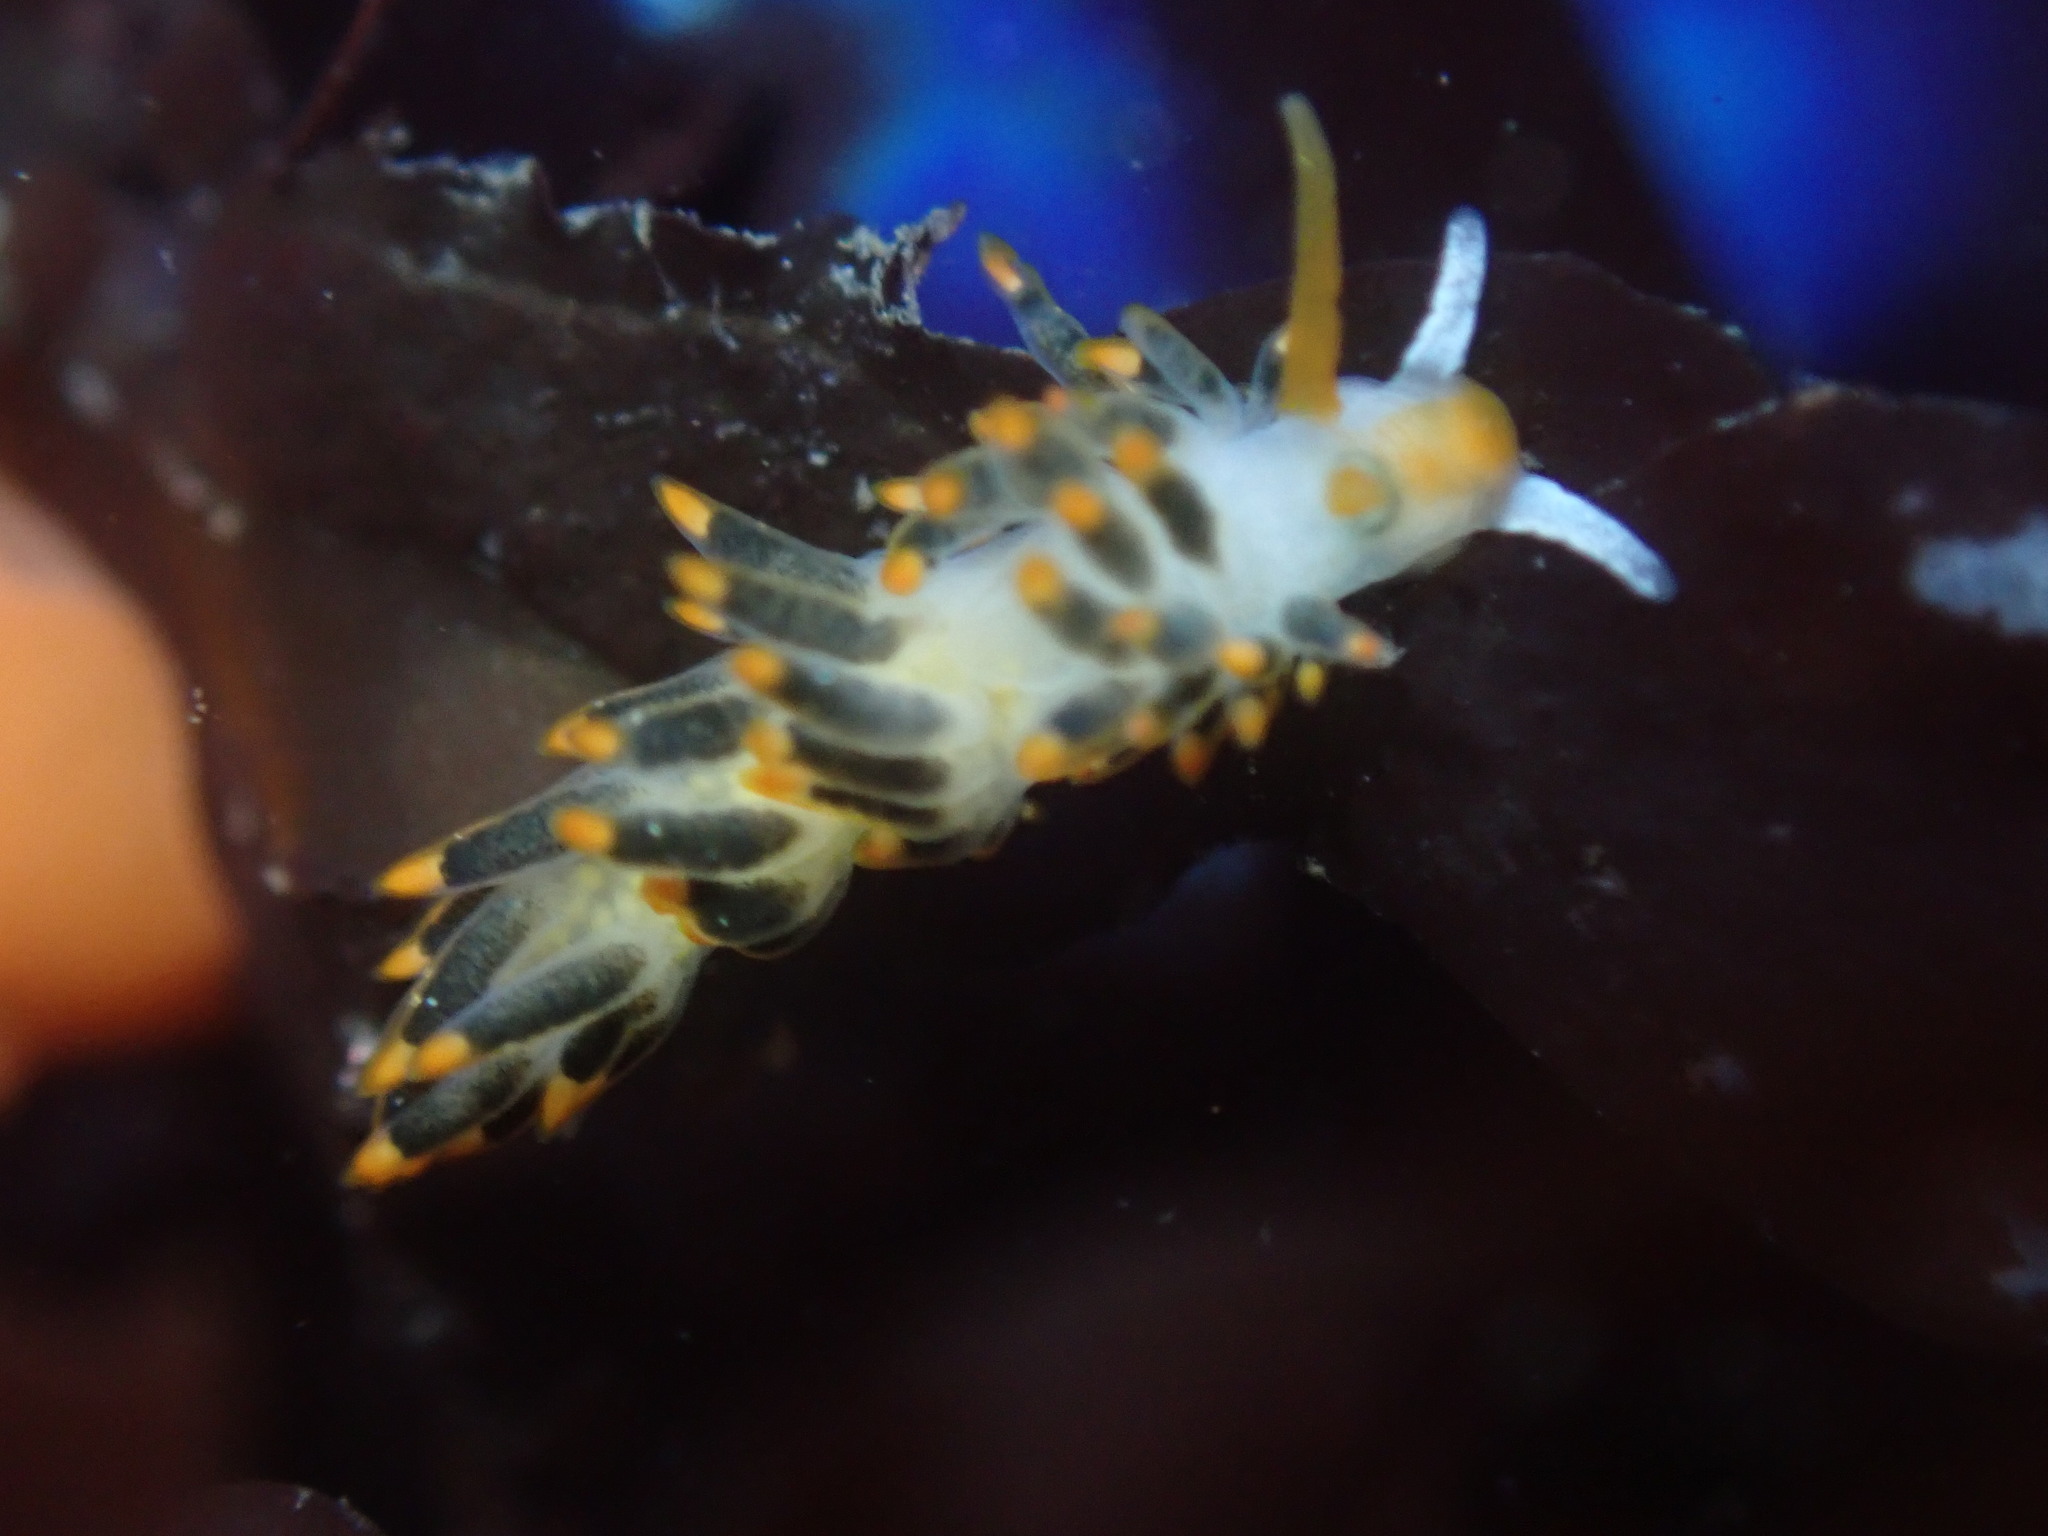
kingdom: Animalia
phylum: Mollusca
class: Gastropoda
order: Nudibranchia
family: Trinchesiidae
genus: Diaphoreolis
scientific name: Diaphoreolis lagunae
